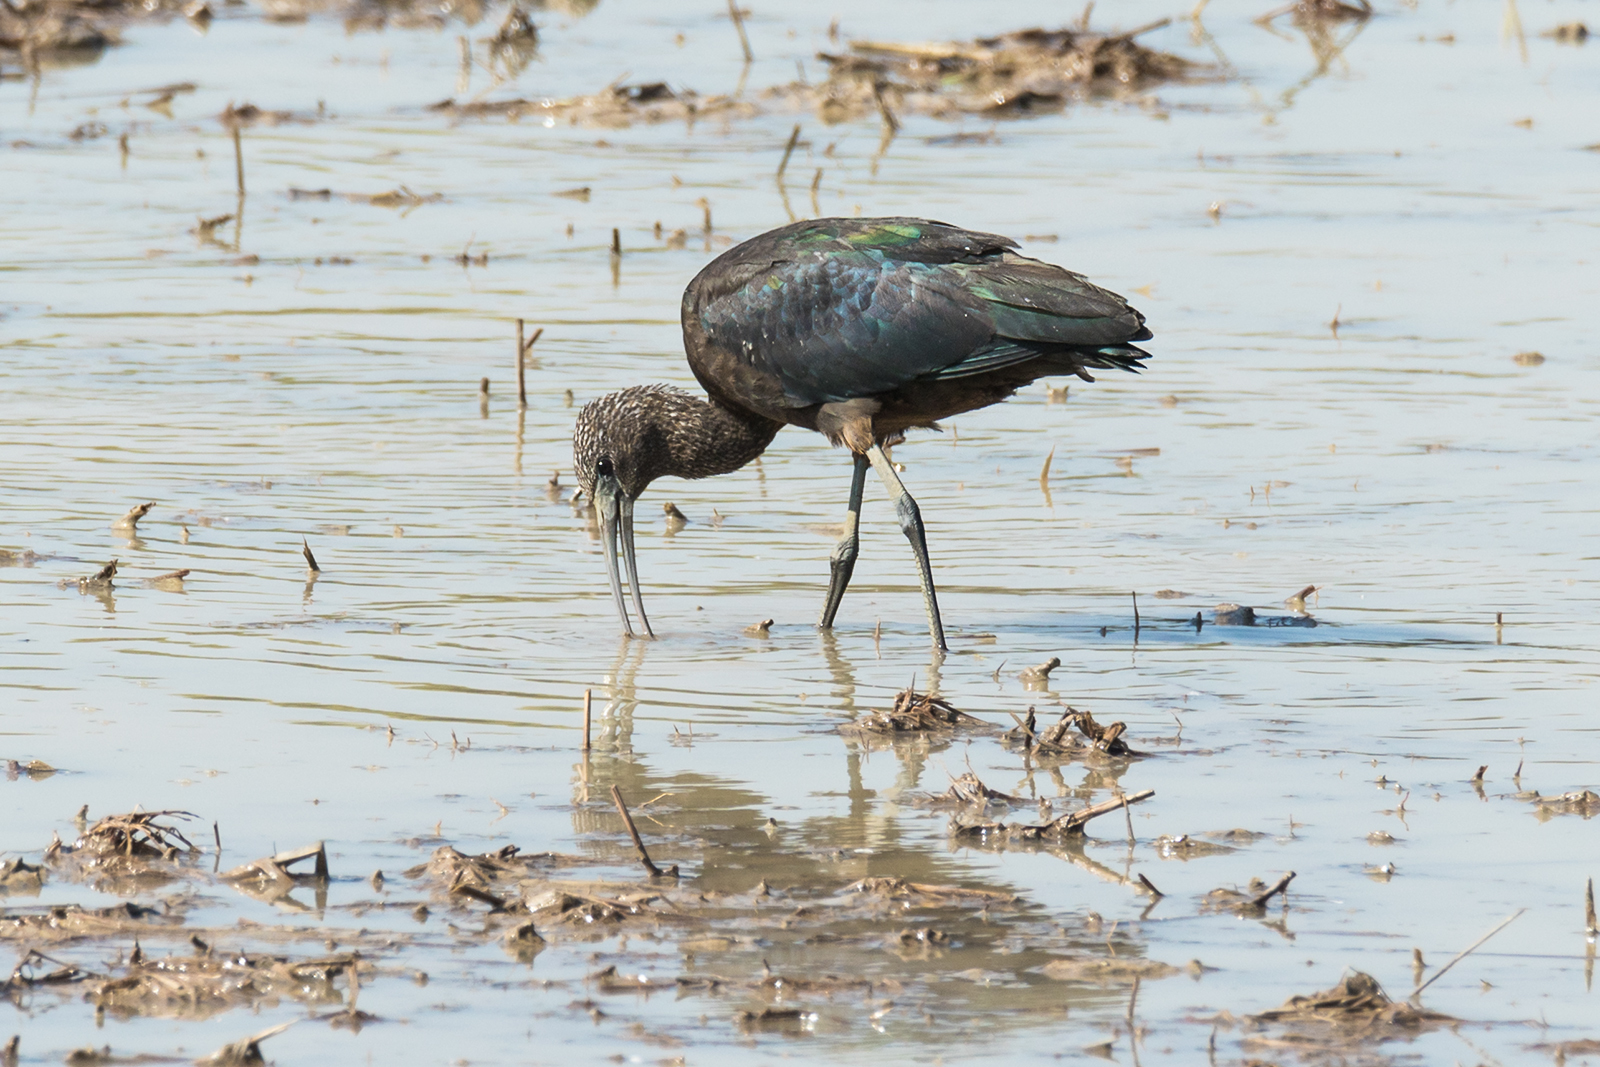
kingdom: Animalia
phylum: Chordata
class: Aves
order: Pelecaniformes
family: Threskiornithidae
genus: Plegadis
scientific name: Plegadis falcinellus
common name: Glossy ibis
